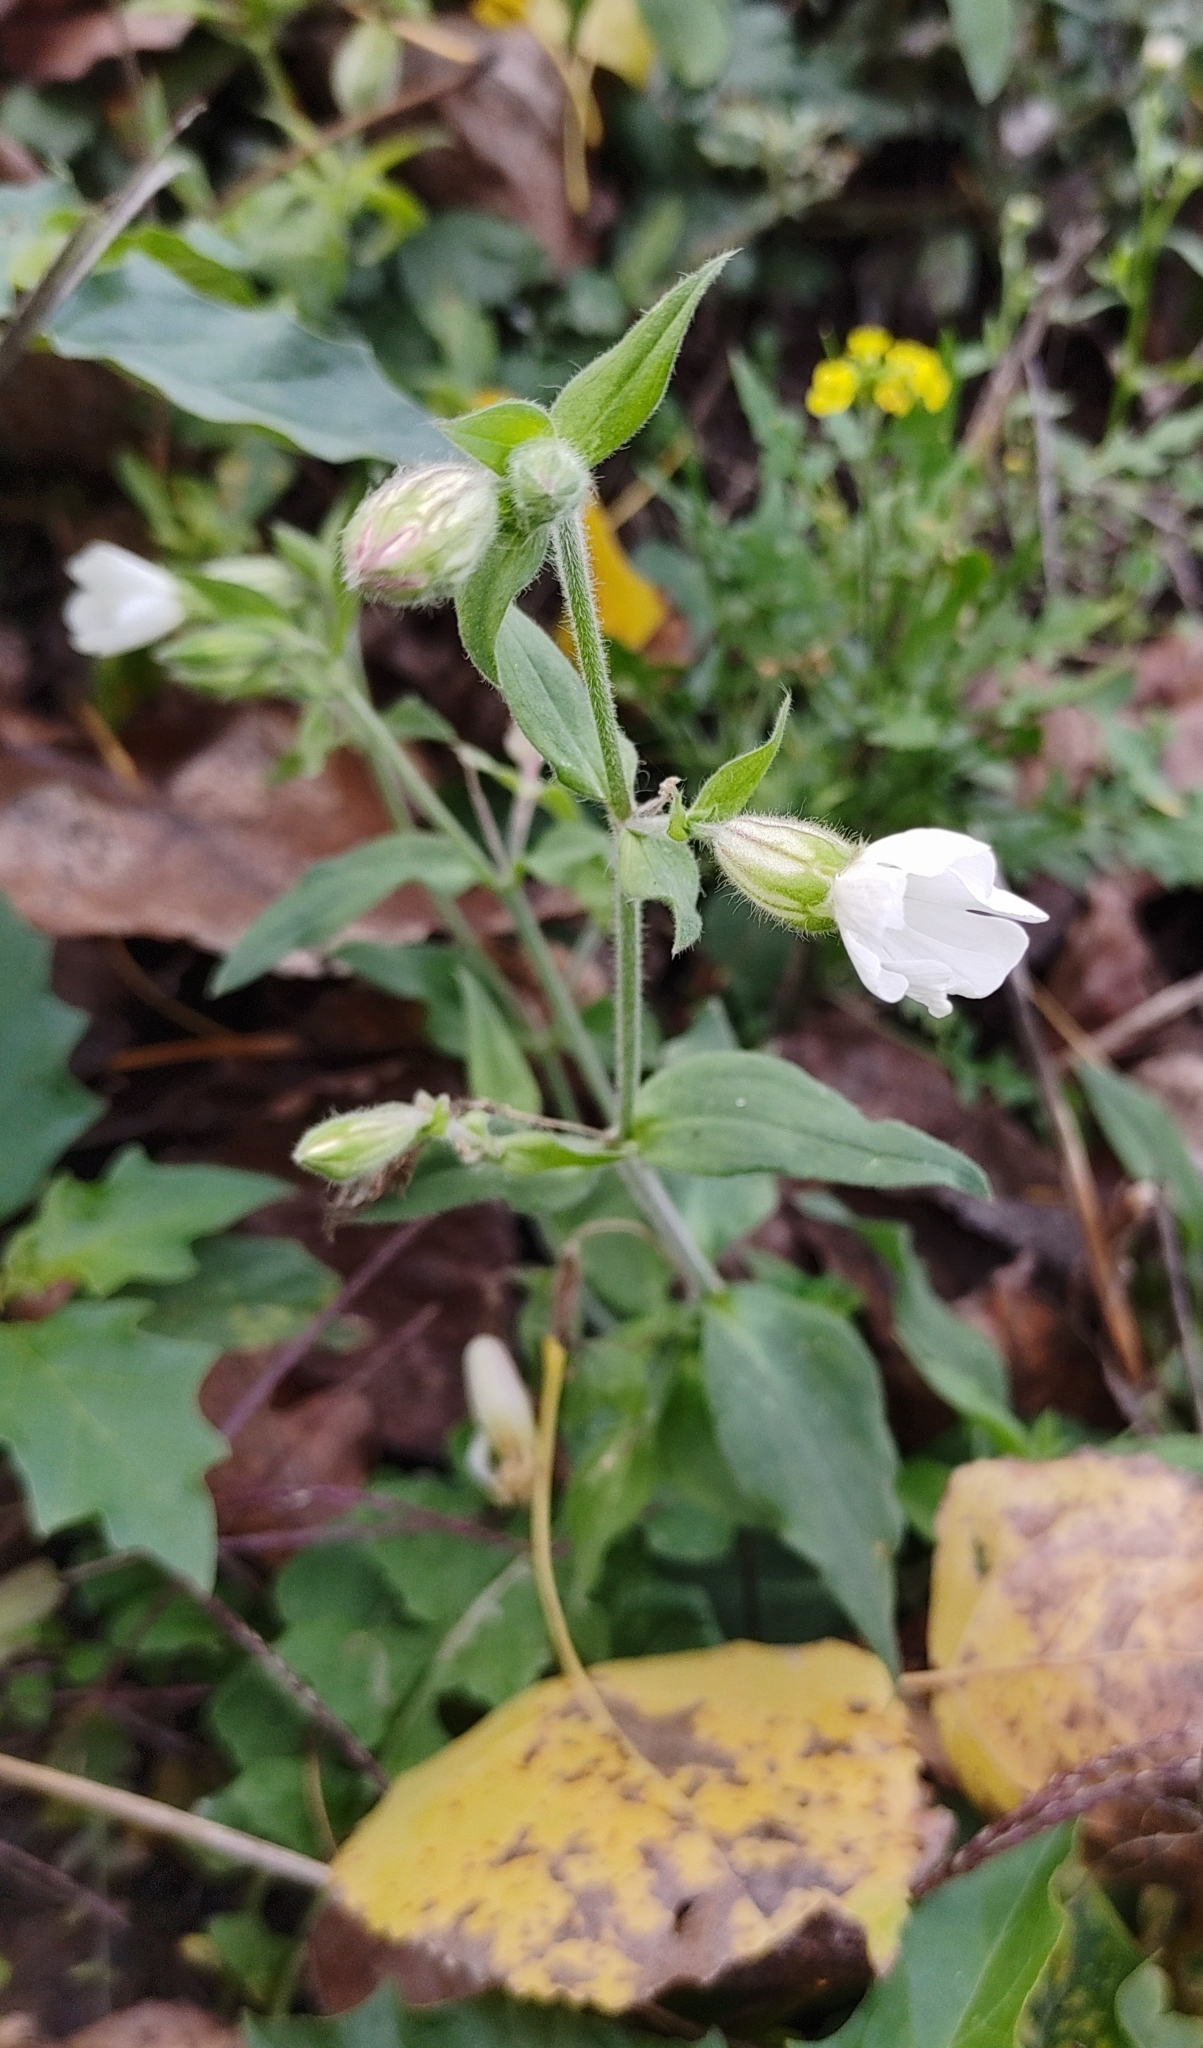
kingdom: Plantae
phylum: Tracheophyta
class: Magnoliopsida
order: Caryophyllales
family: Caryophyllaceae
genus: Silene
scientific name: Silene latifolia
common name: White campion
